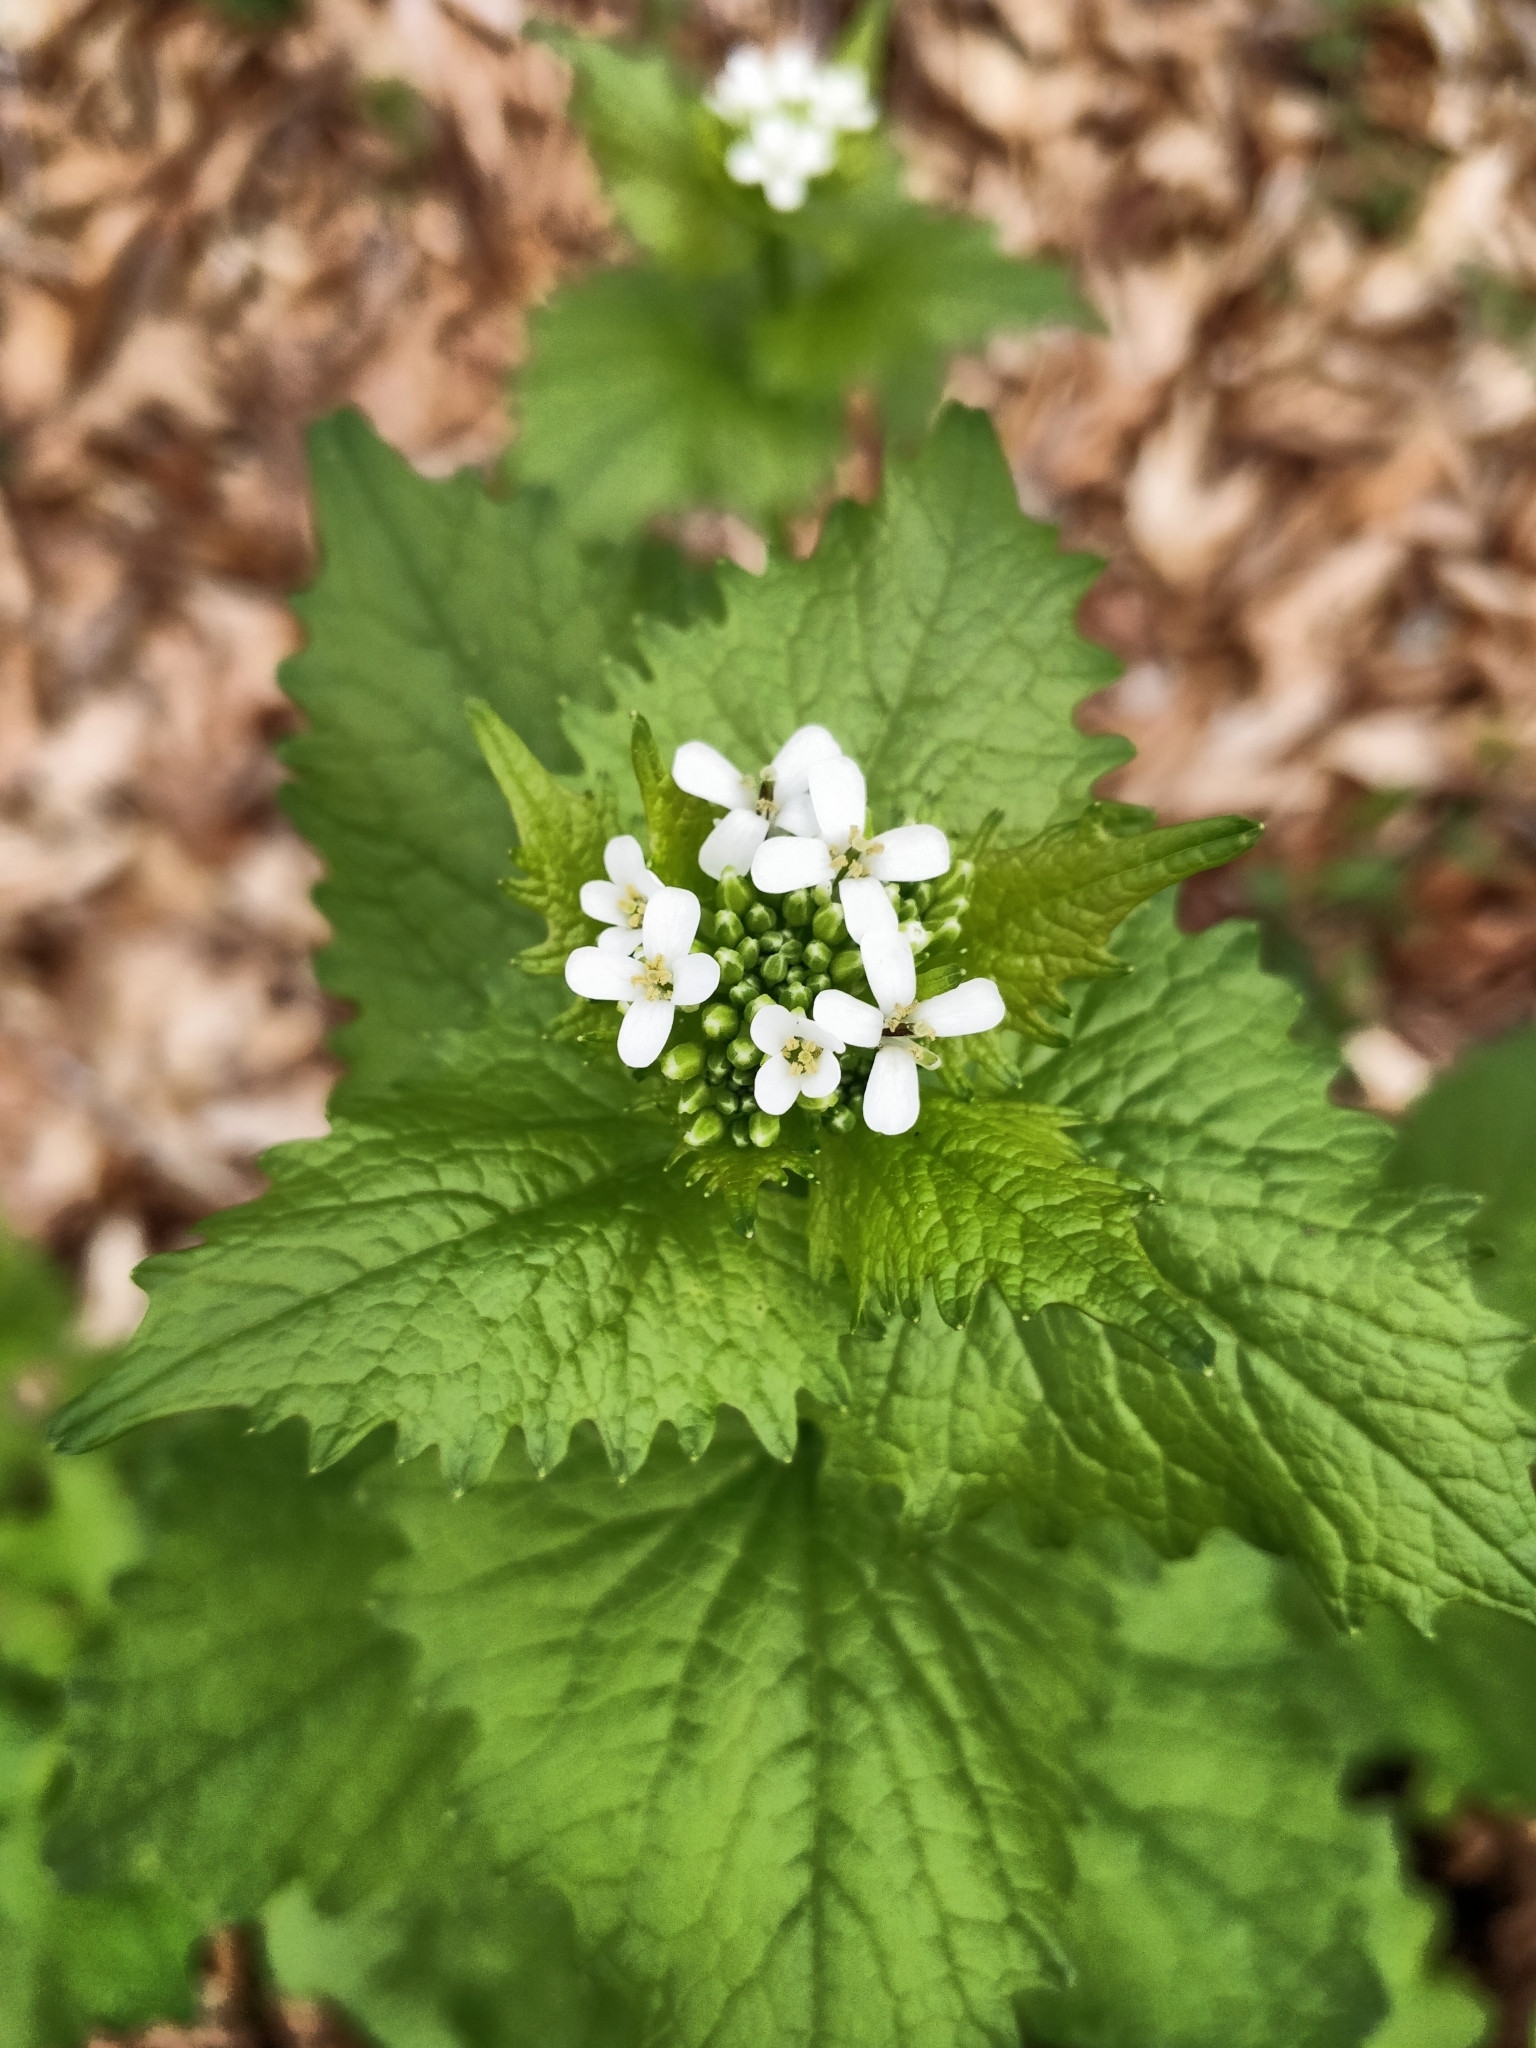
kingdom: Plantae
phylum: Tracheophyta
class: Magnoliopsida
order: Brassicales
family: Brassicaceae
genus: Alliaria
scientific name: Alliaria petiolata
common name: Garlic mustard
